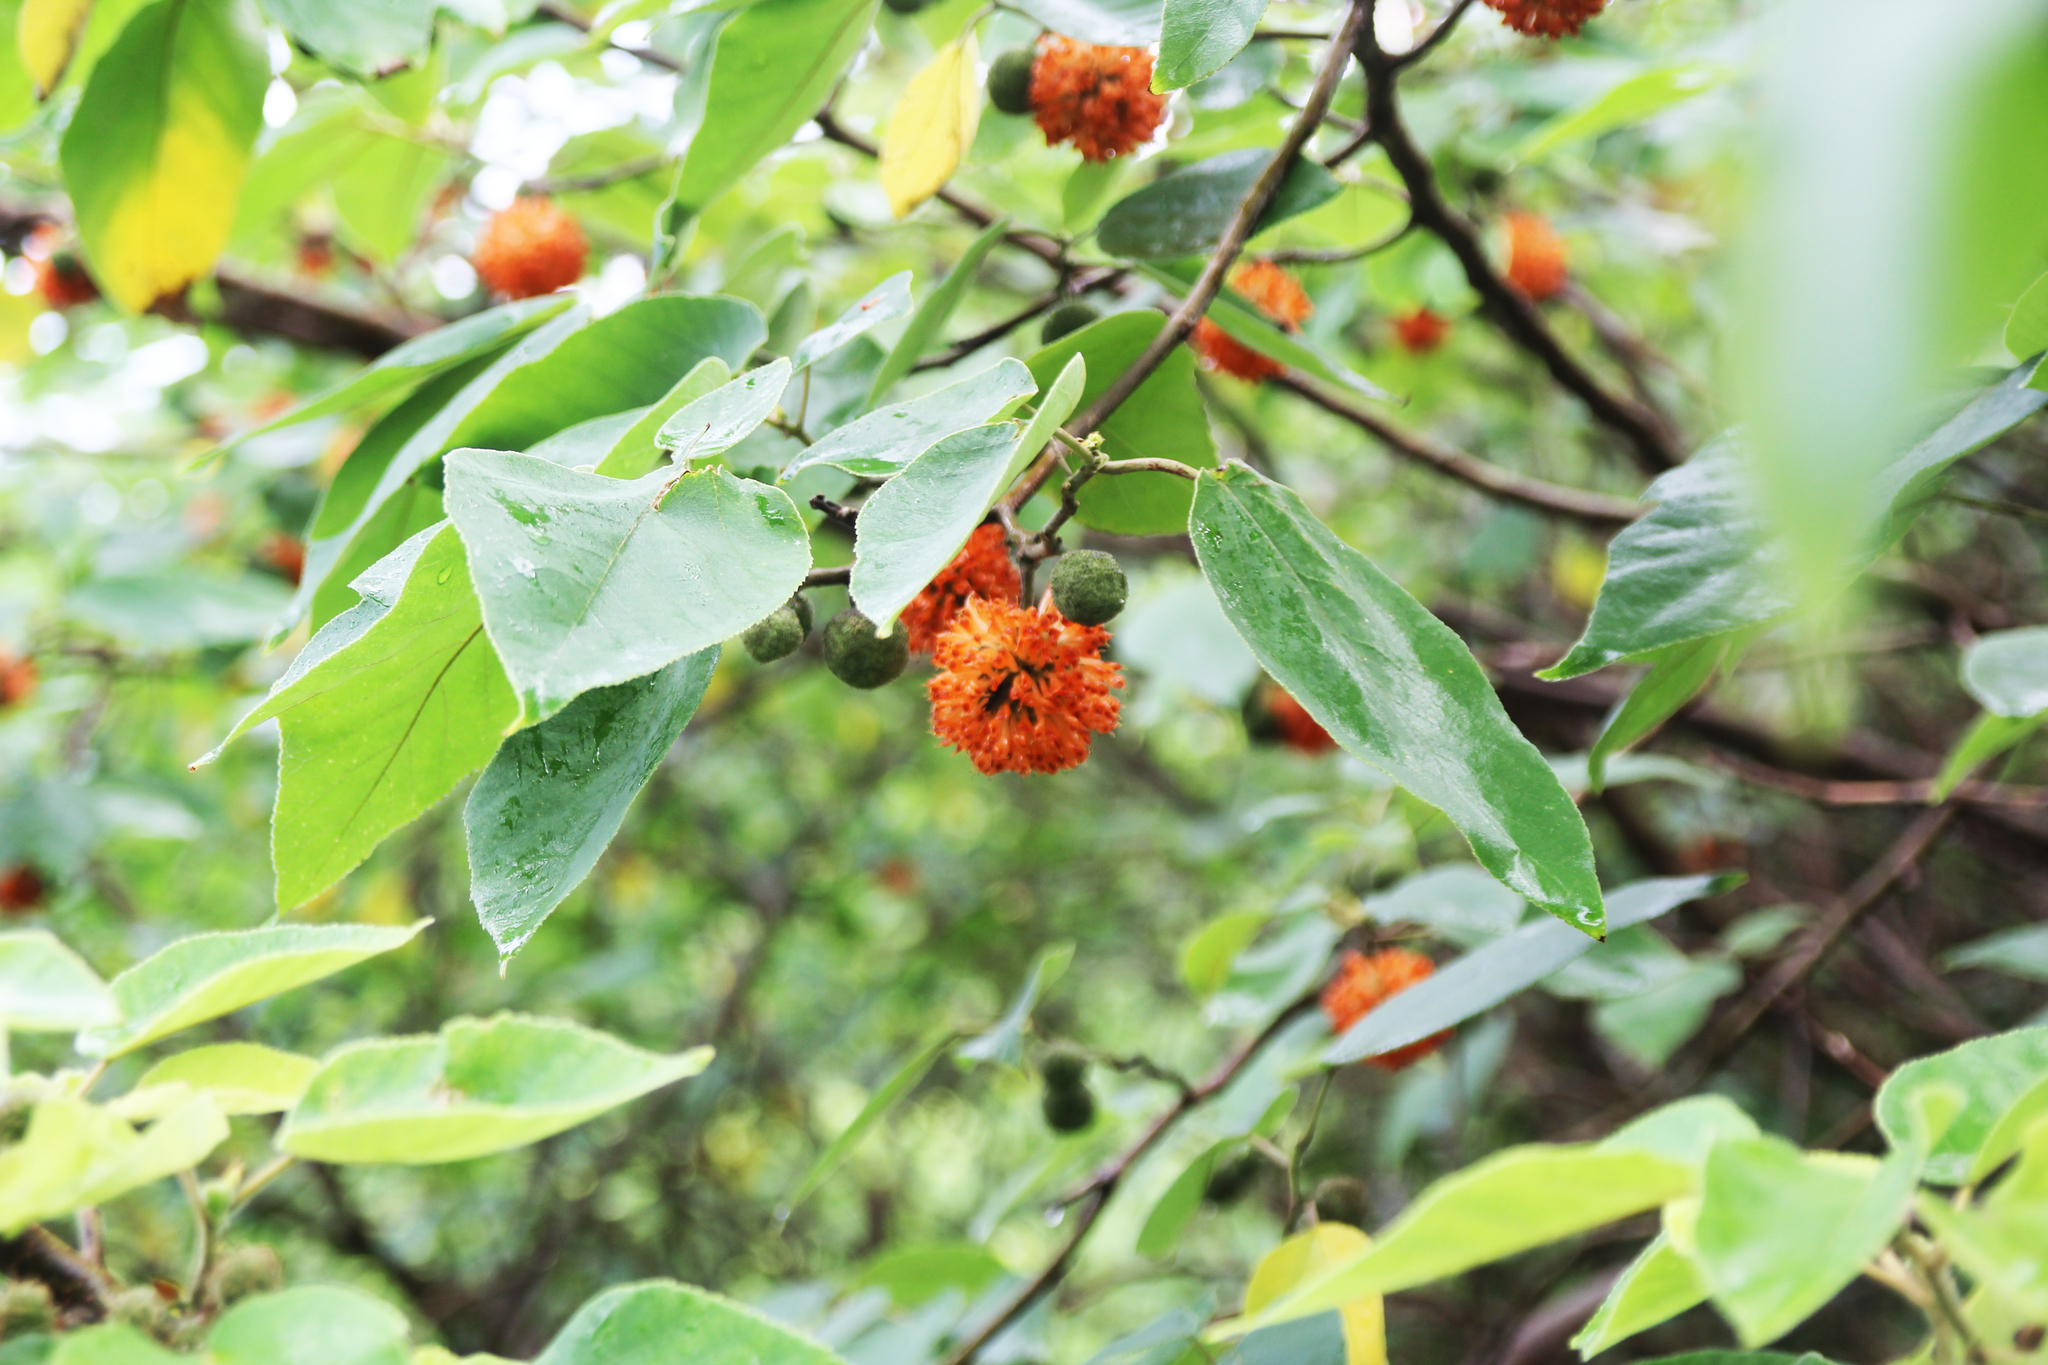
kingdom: Plantae
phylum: Tracheophyta
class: Magnoliopsida
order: Rosales
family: Moraceae
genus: Broussonetia
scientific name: Broussonetia papyrifera
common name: Paper mulberry
